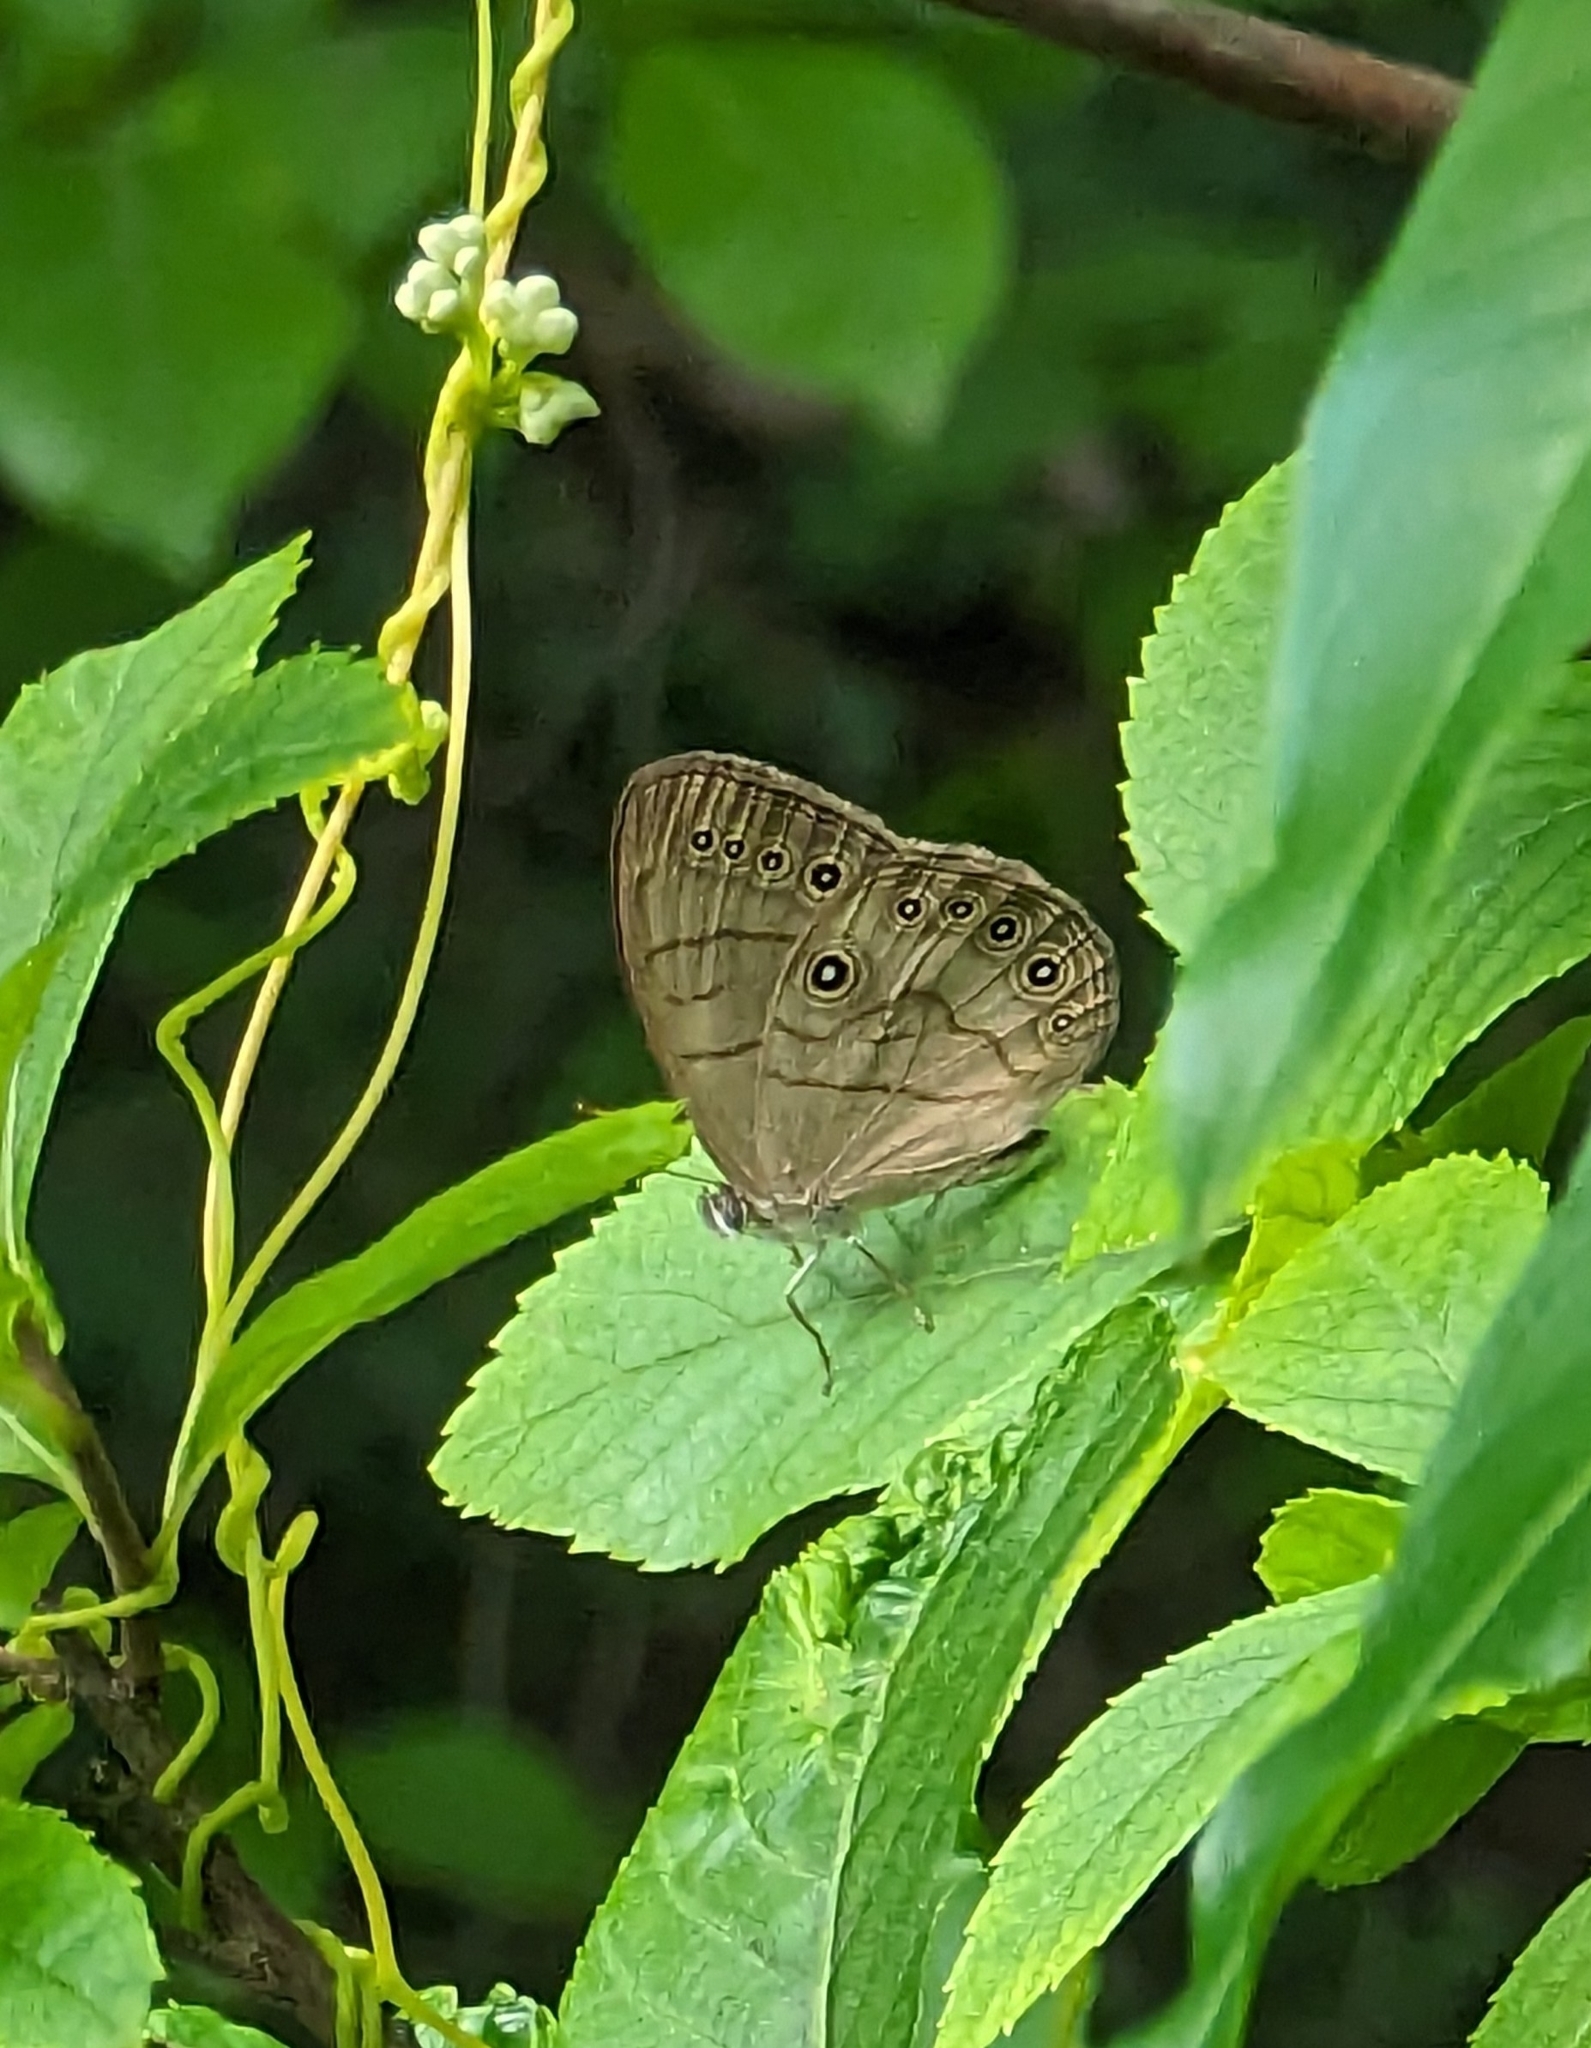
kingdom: Animalia
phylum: Arthropoda
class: Insecta
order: Lepidoptera
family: Nymphalidae
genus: Lethe
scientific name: Lethe eurydice
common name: Eyed brown
